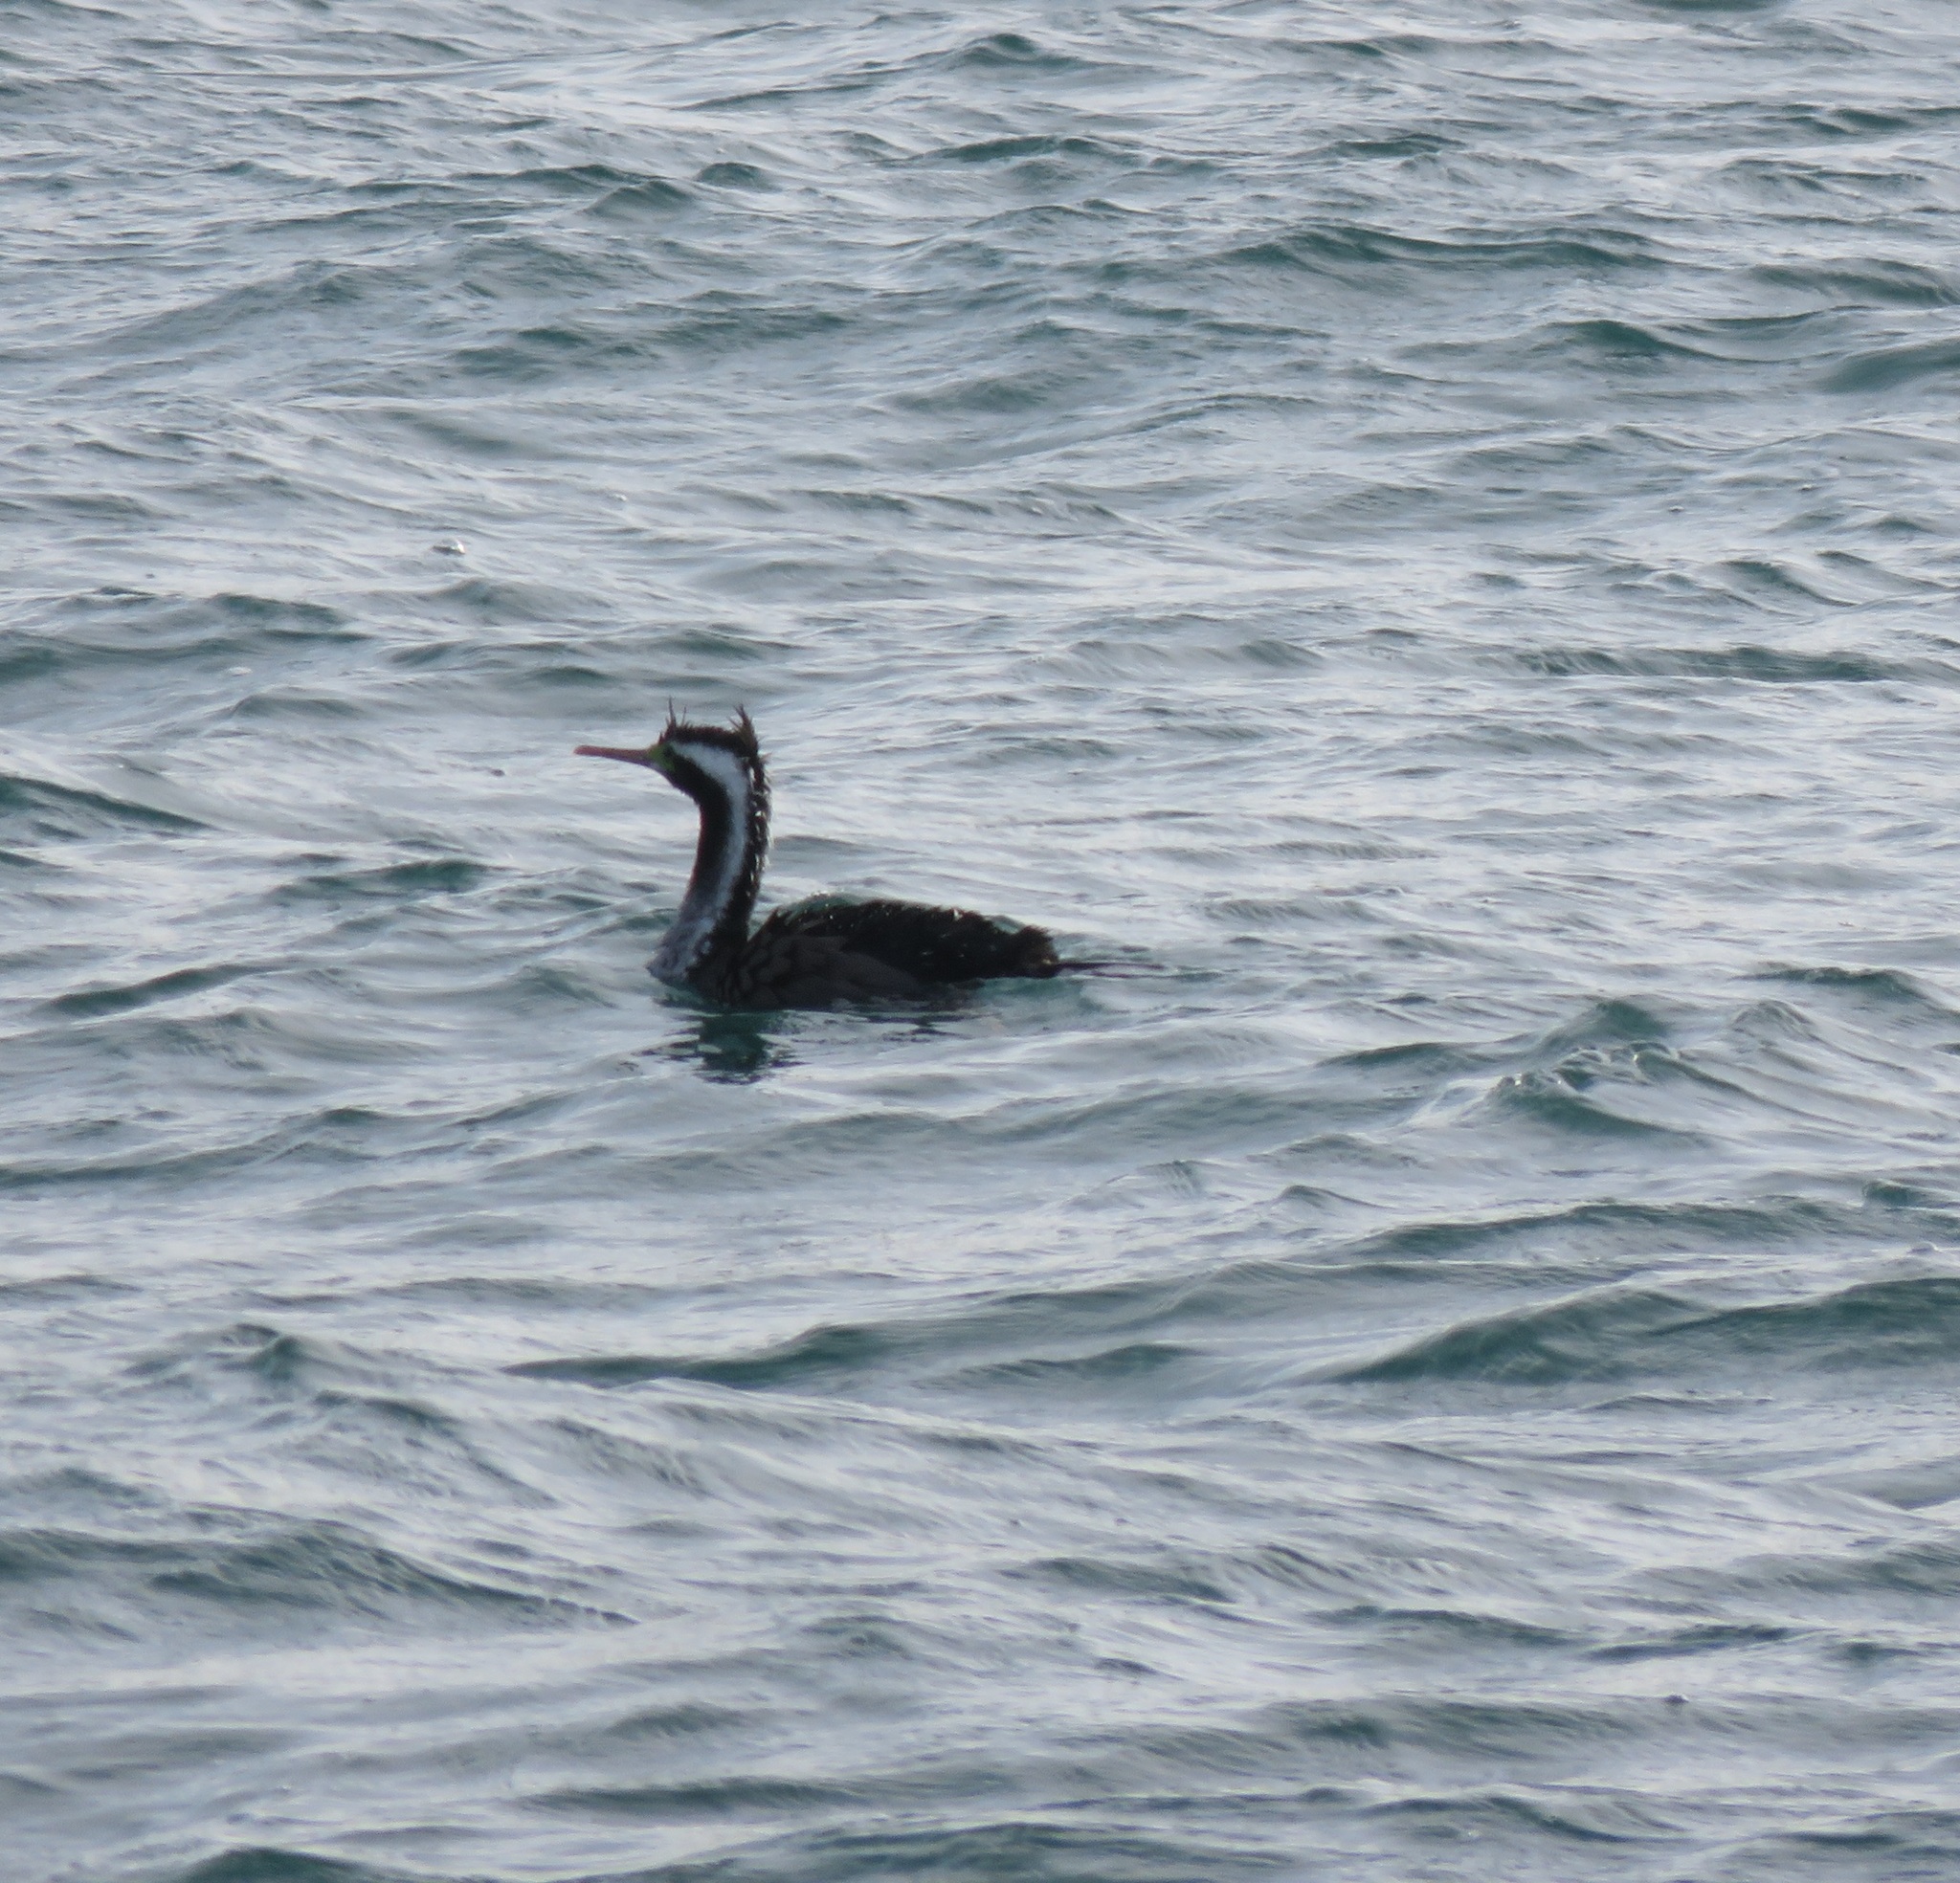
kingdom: Animalia
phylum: Chordata
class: Aves
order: Suliformes
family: Phalacrocoracidae
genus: Phalacrocorax
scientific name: Phalacrocorax punctatus
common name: Spotted shag
